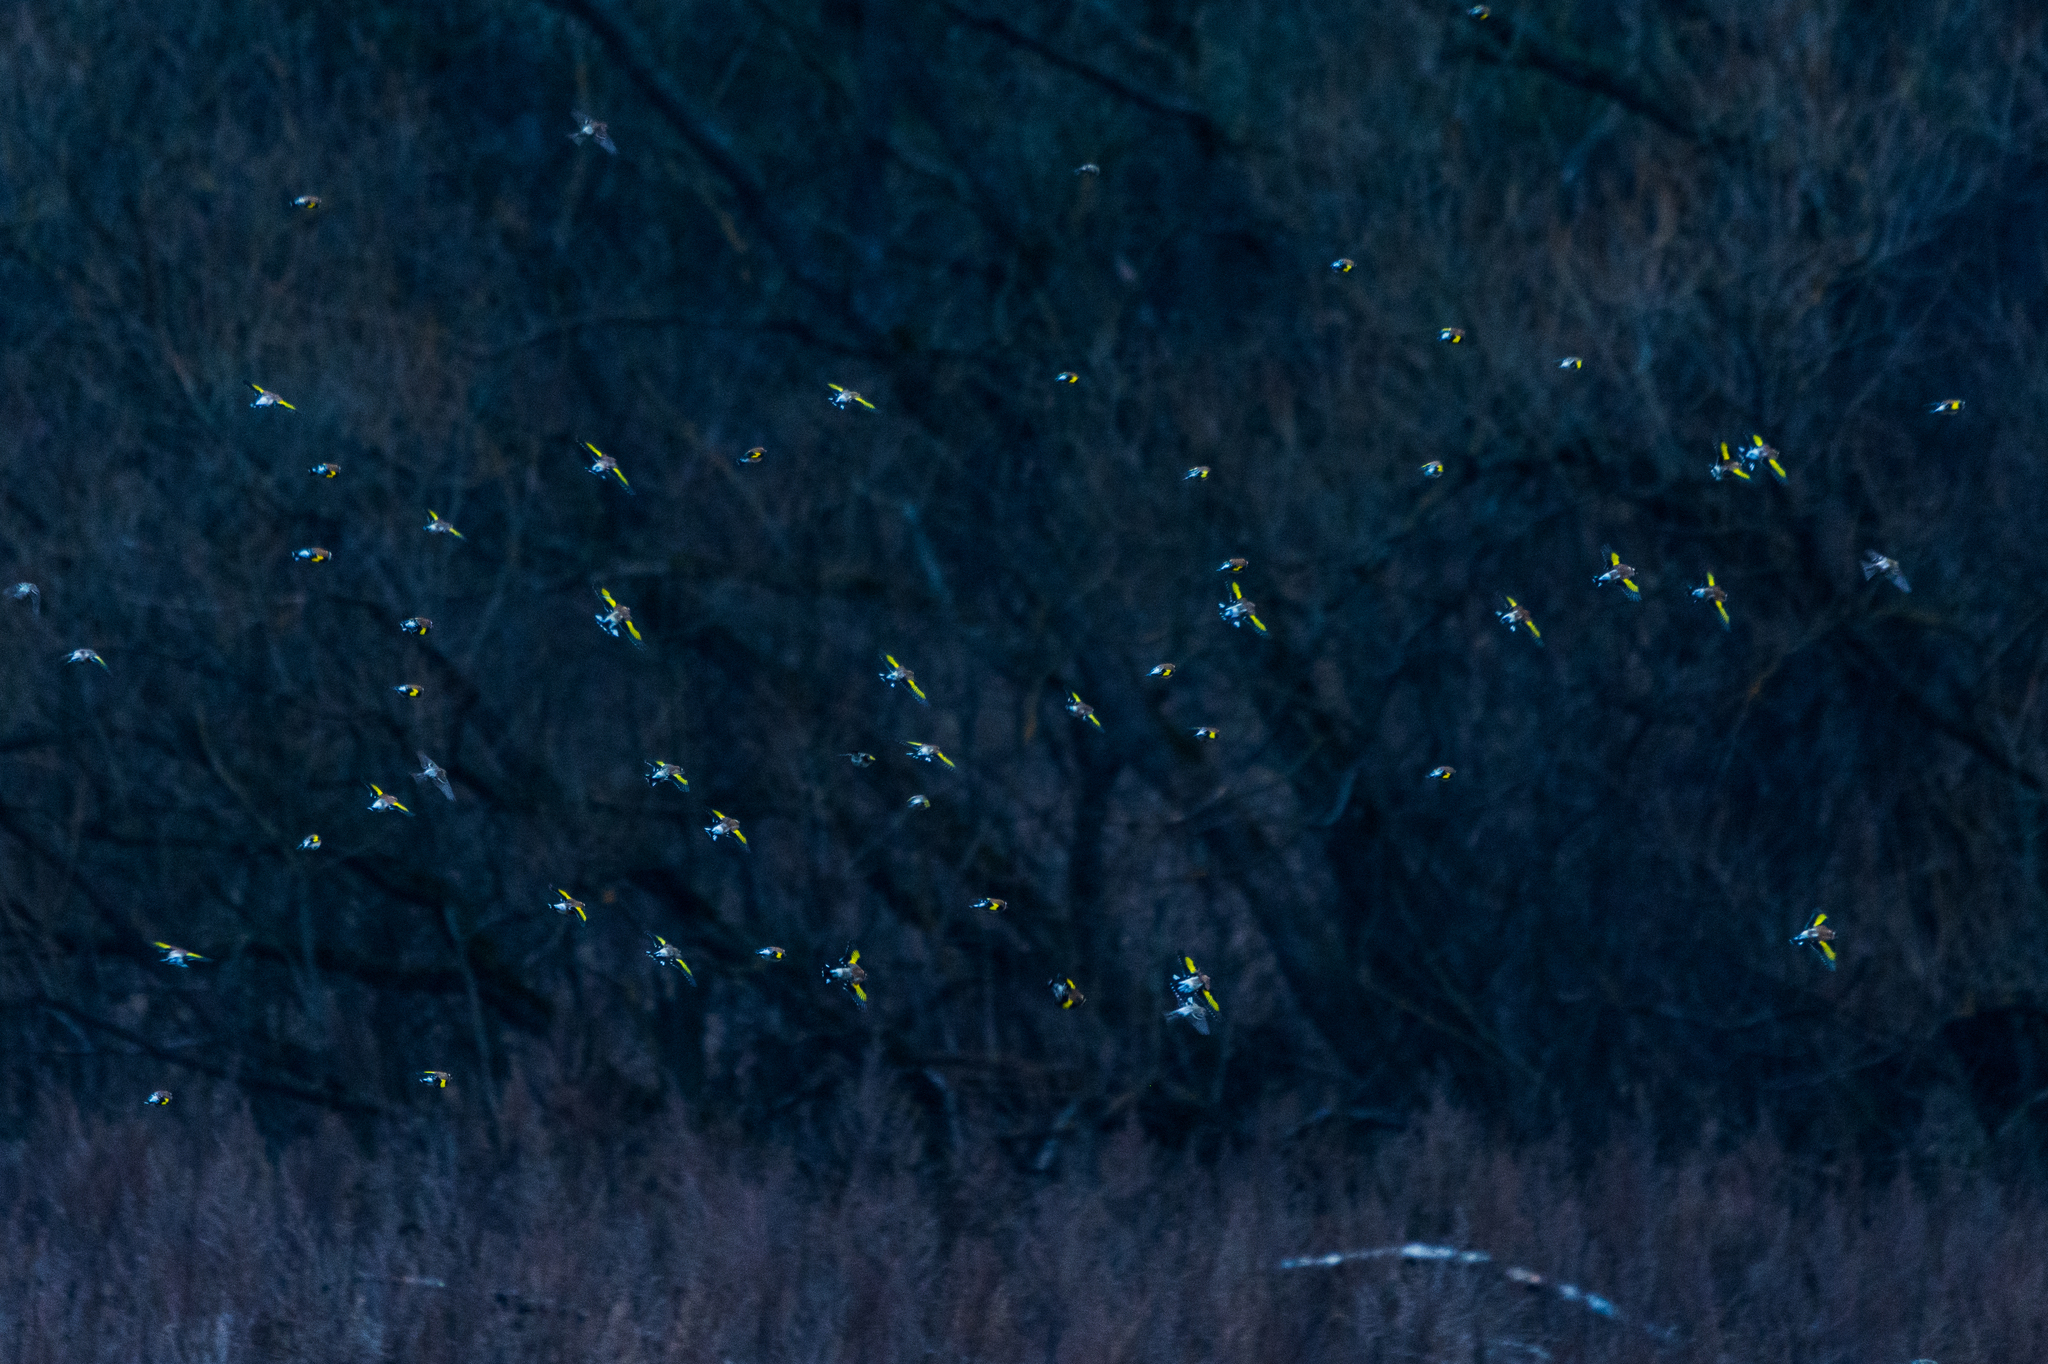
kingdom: Animalia
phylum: Chordata
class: Aves
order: Passeriformes
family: Fringillidae
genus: Carduelis
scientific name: Carduelis carduelis
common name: European goldfinch
